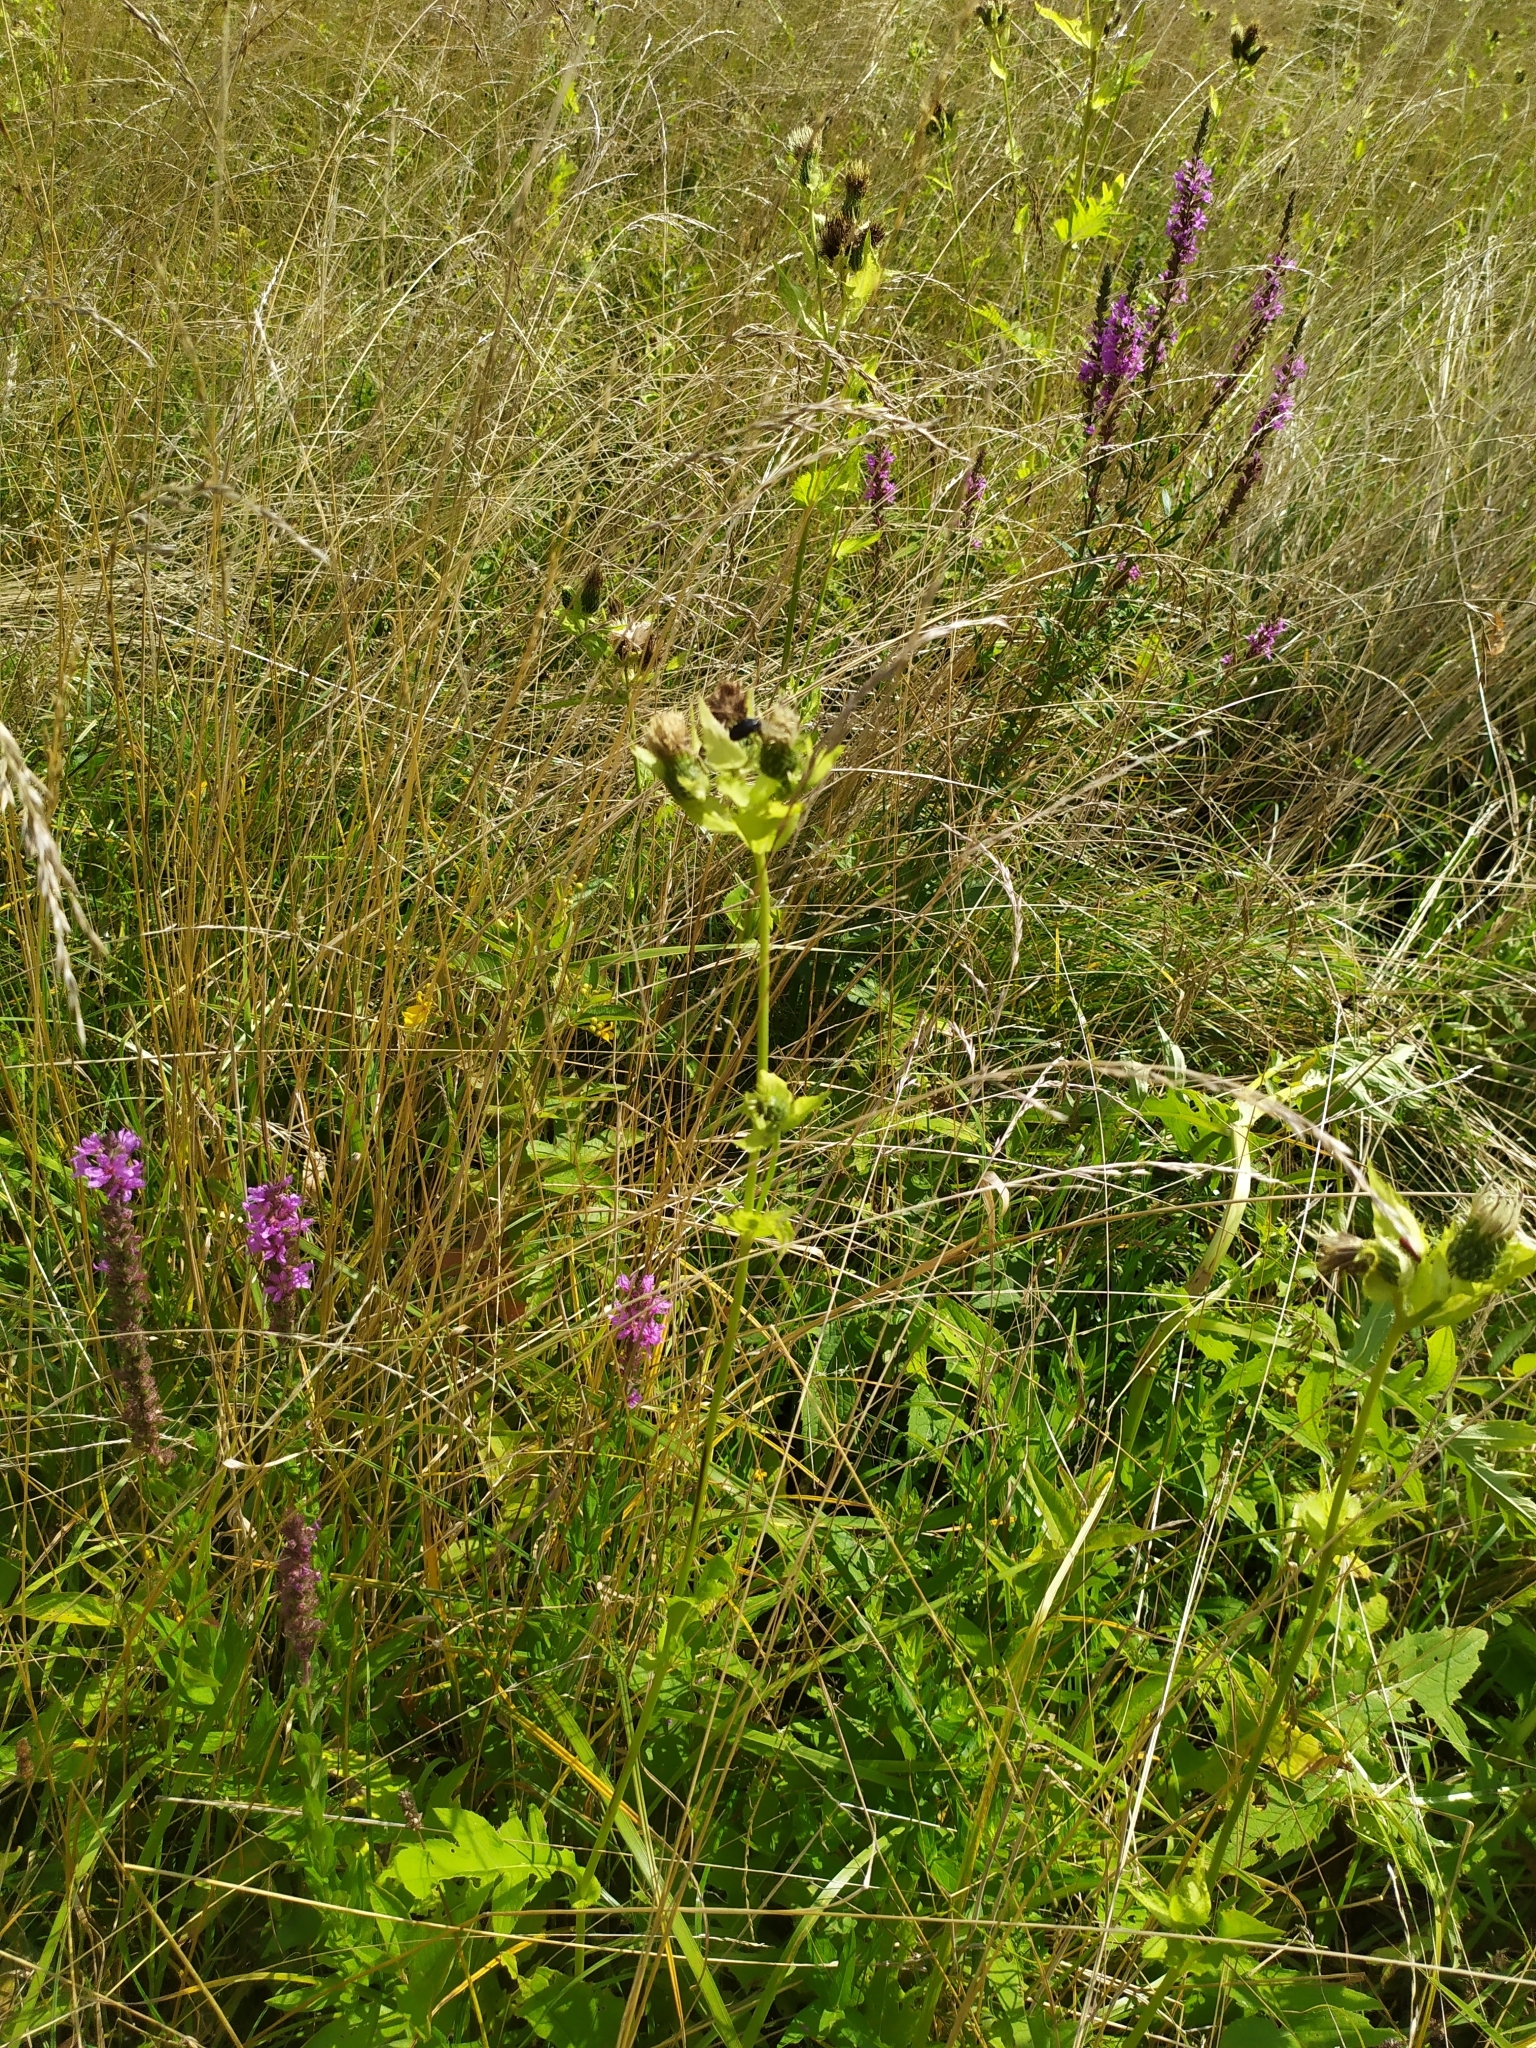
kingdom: Plantae
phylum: Tracheophyta
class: Magnoliopsida
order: Asterales
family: Asteraceae
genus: Cirsium
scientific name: Cirsium oleraceum
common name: Cabbage thistle
